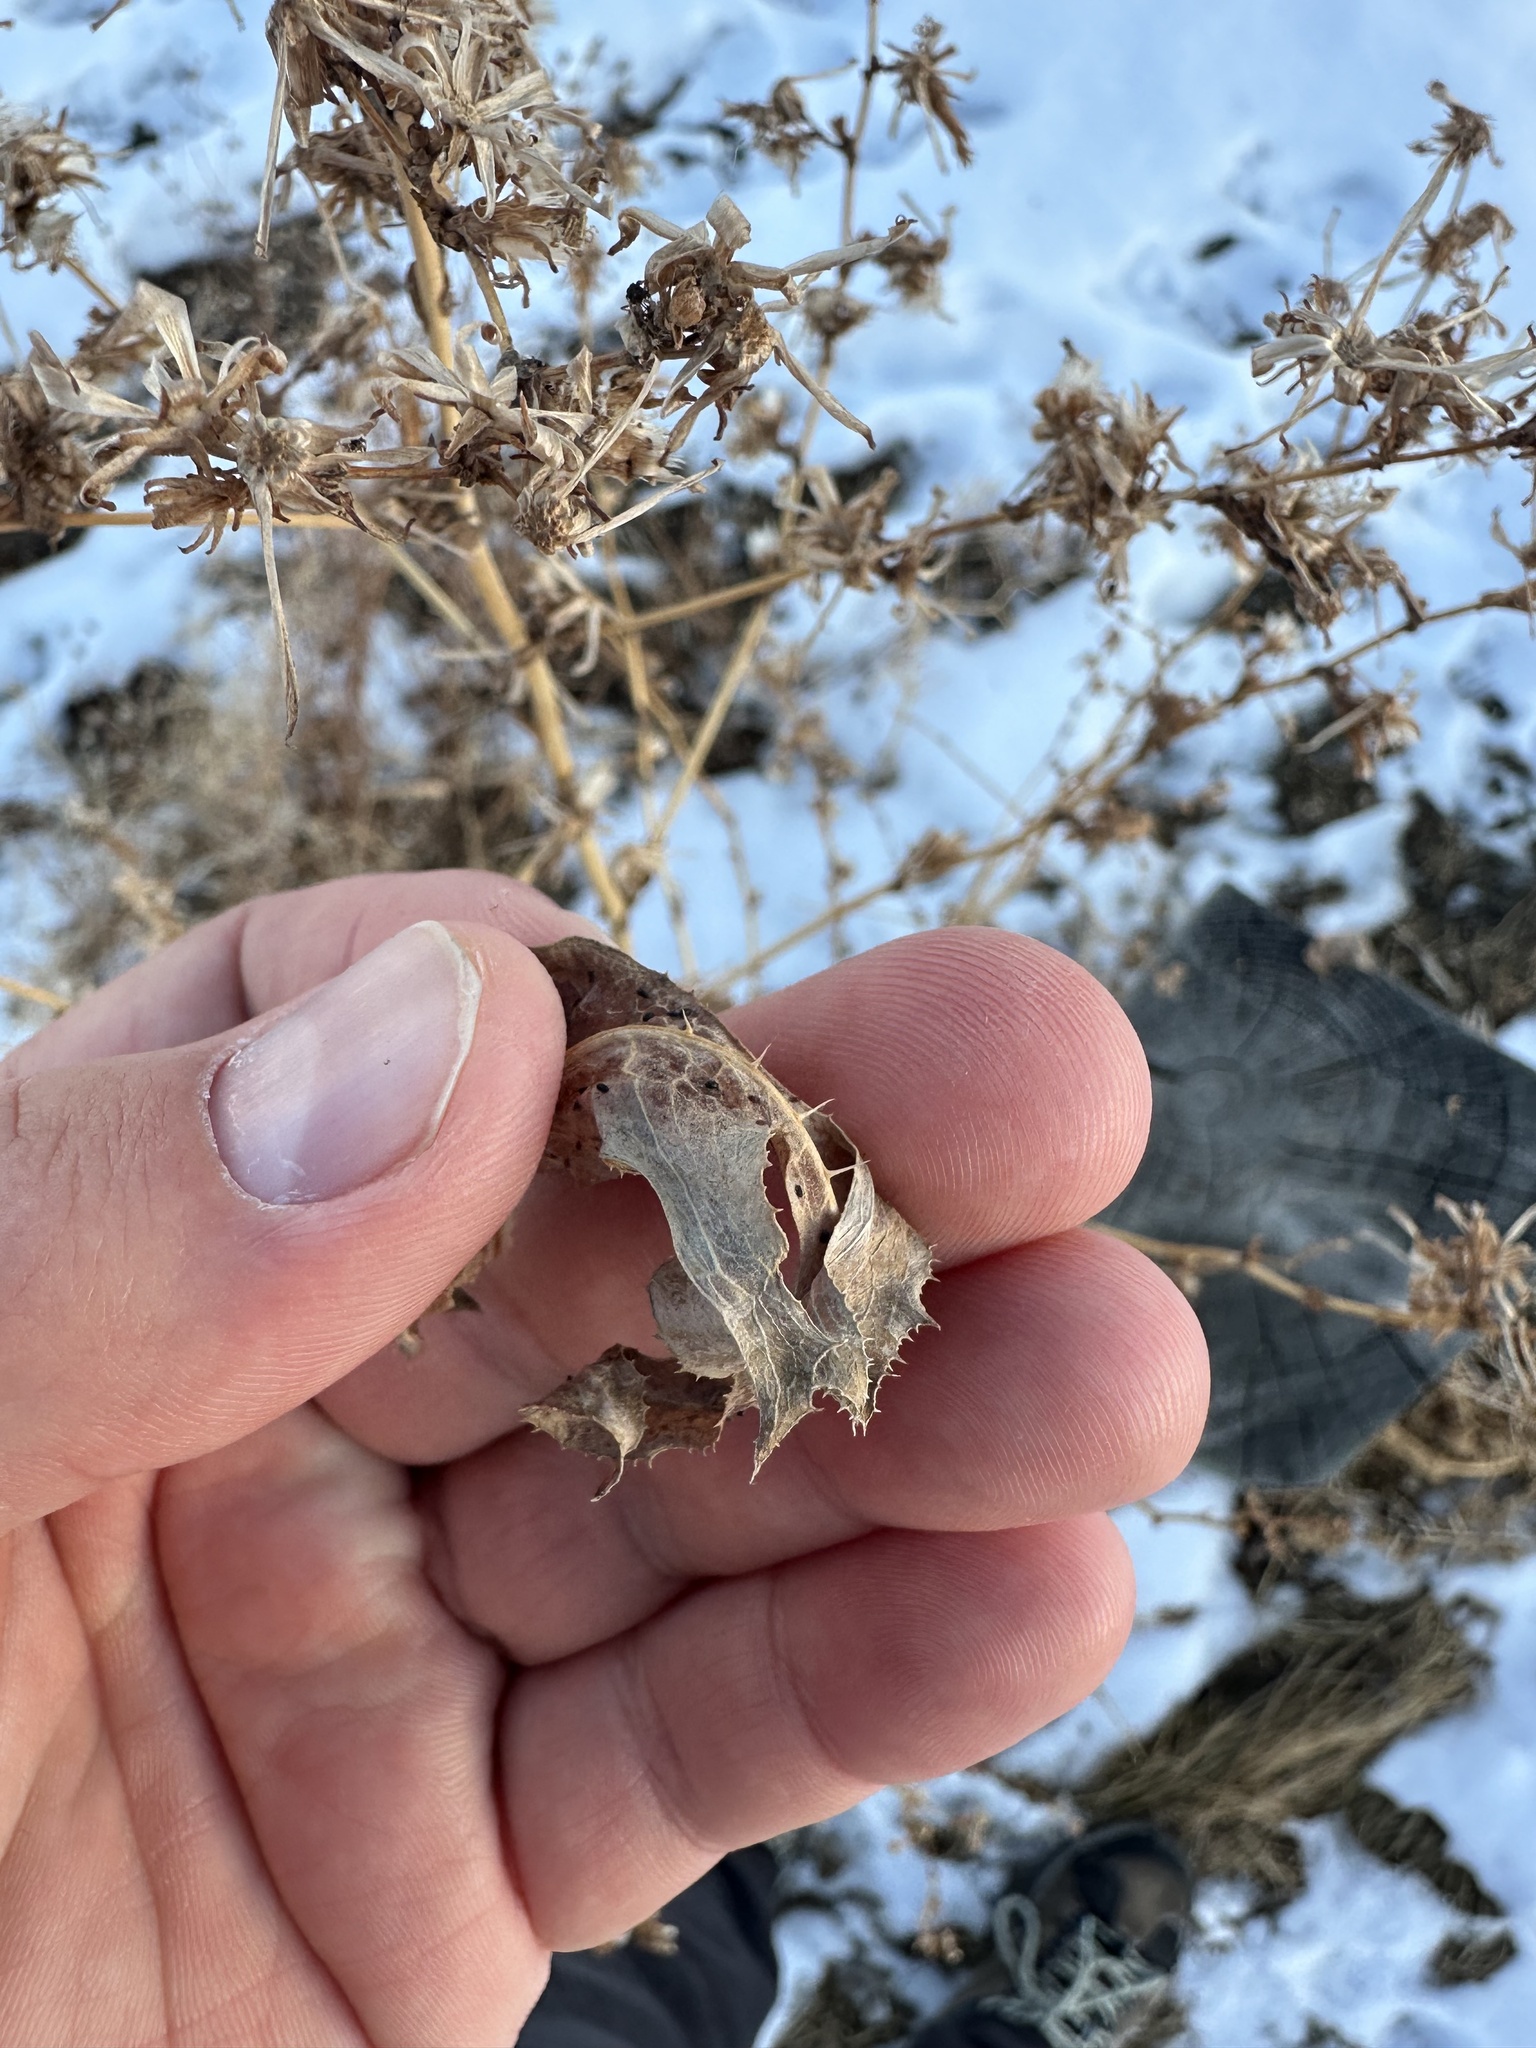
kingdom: Plantae
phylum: Tracheophyta
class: Magnoliopsida
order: Asterales
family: Asteraceae
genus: Lactuca
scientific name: Lactuca serriola
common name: Prickly lettuce
